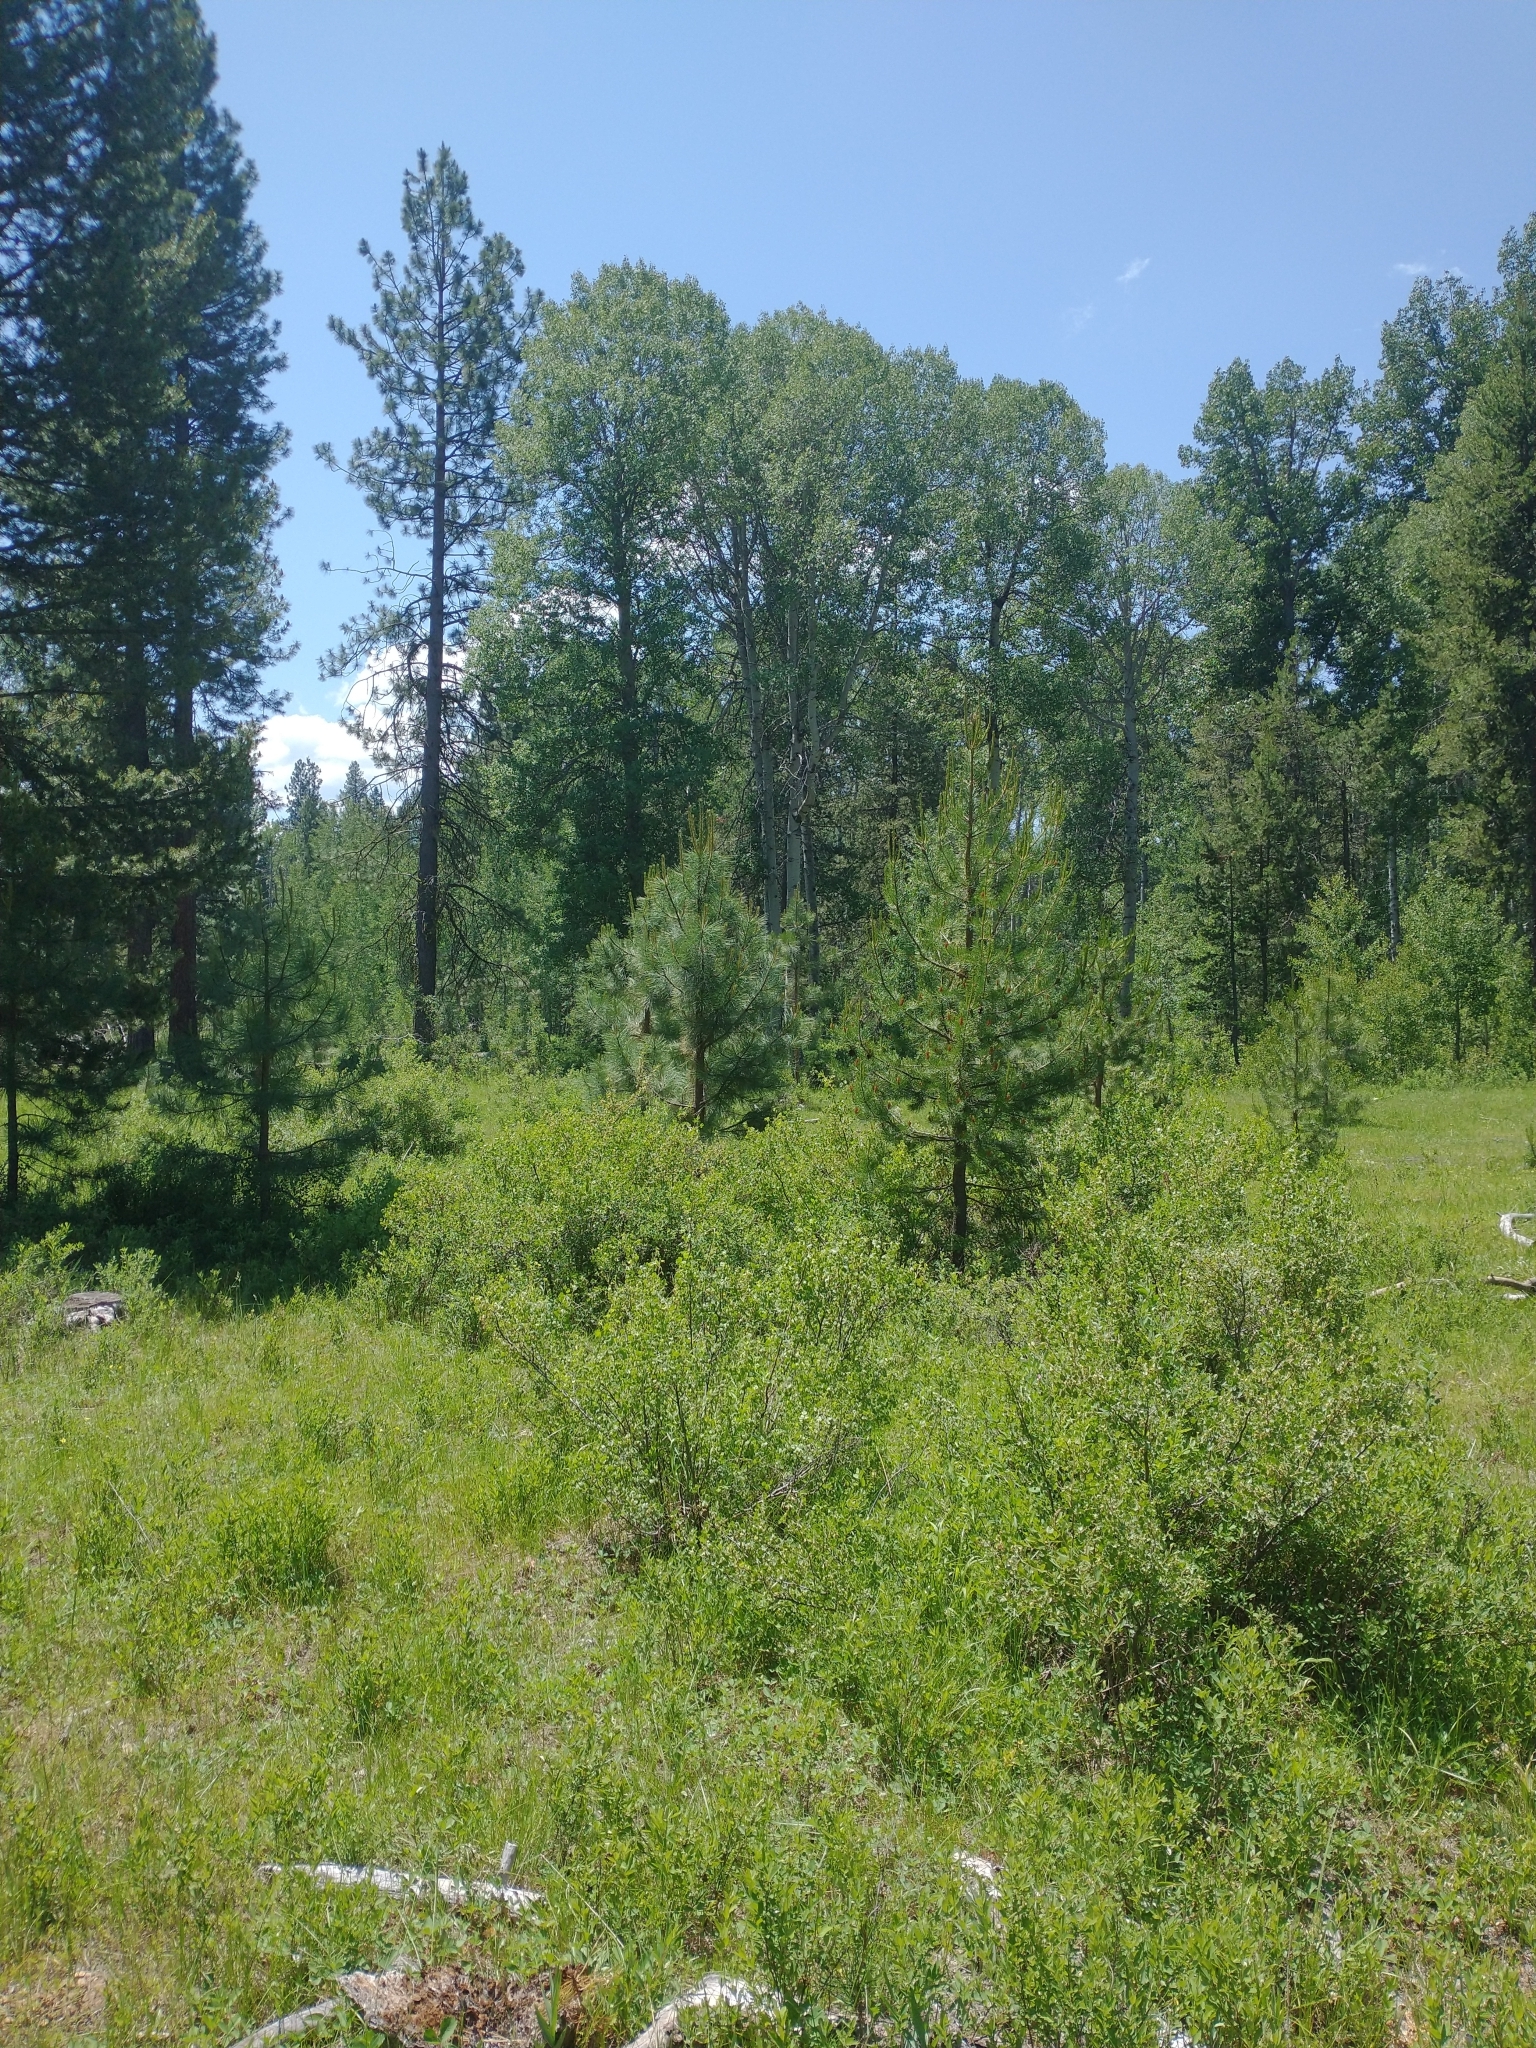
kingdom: Plantae
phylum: Tracheophyta
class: Magnoliopsida
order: Saxifragales
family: Grossulariaceae
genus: Ribes
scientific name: Ribes cereum
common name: Wax currant
